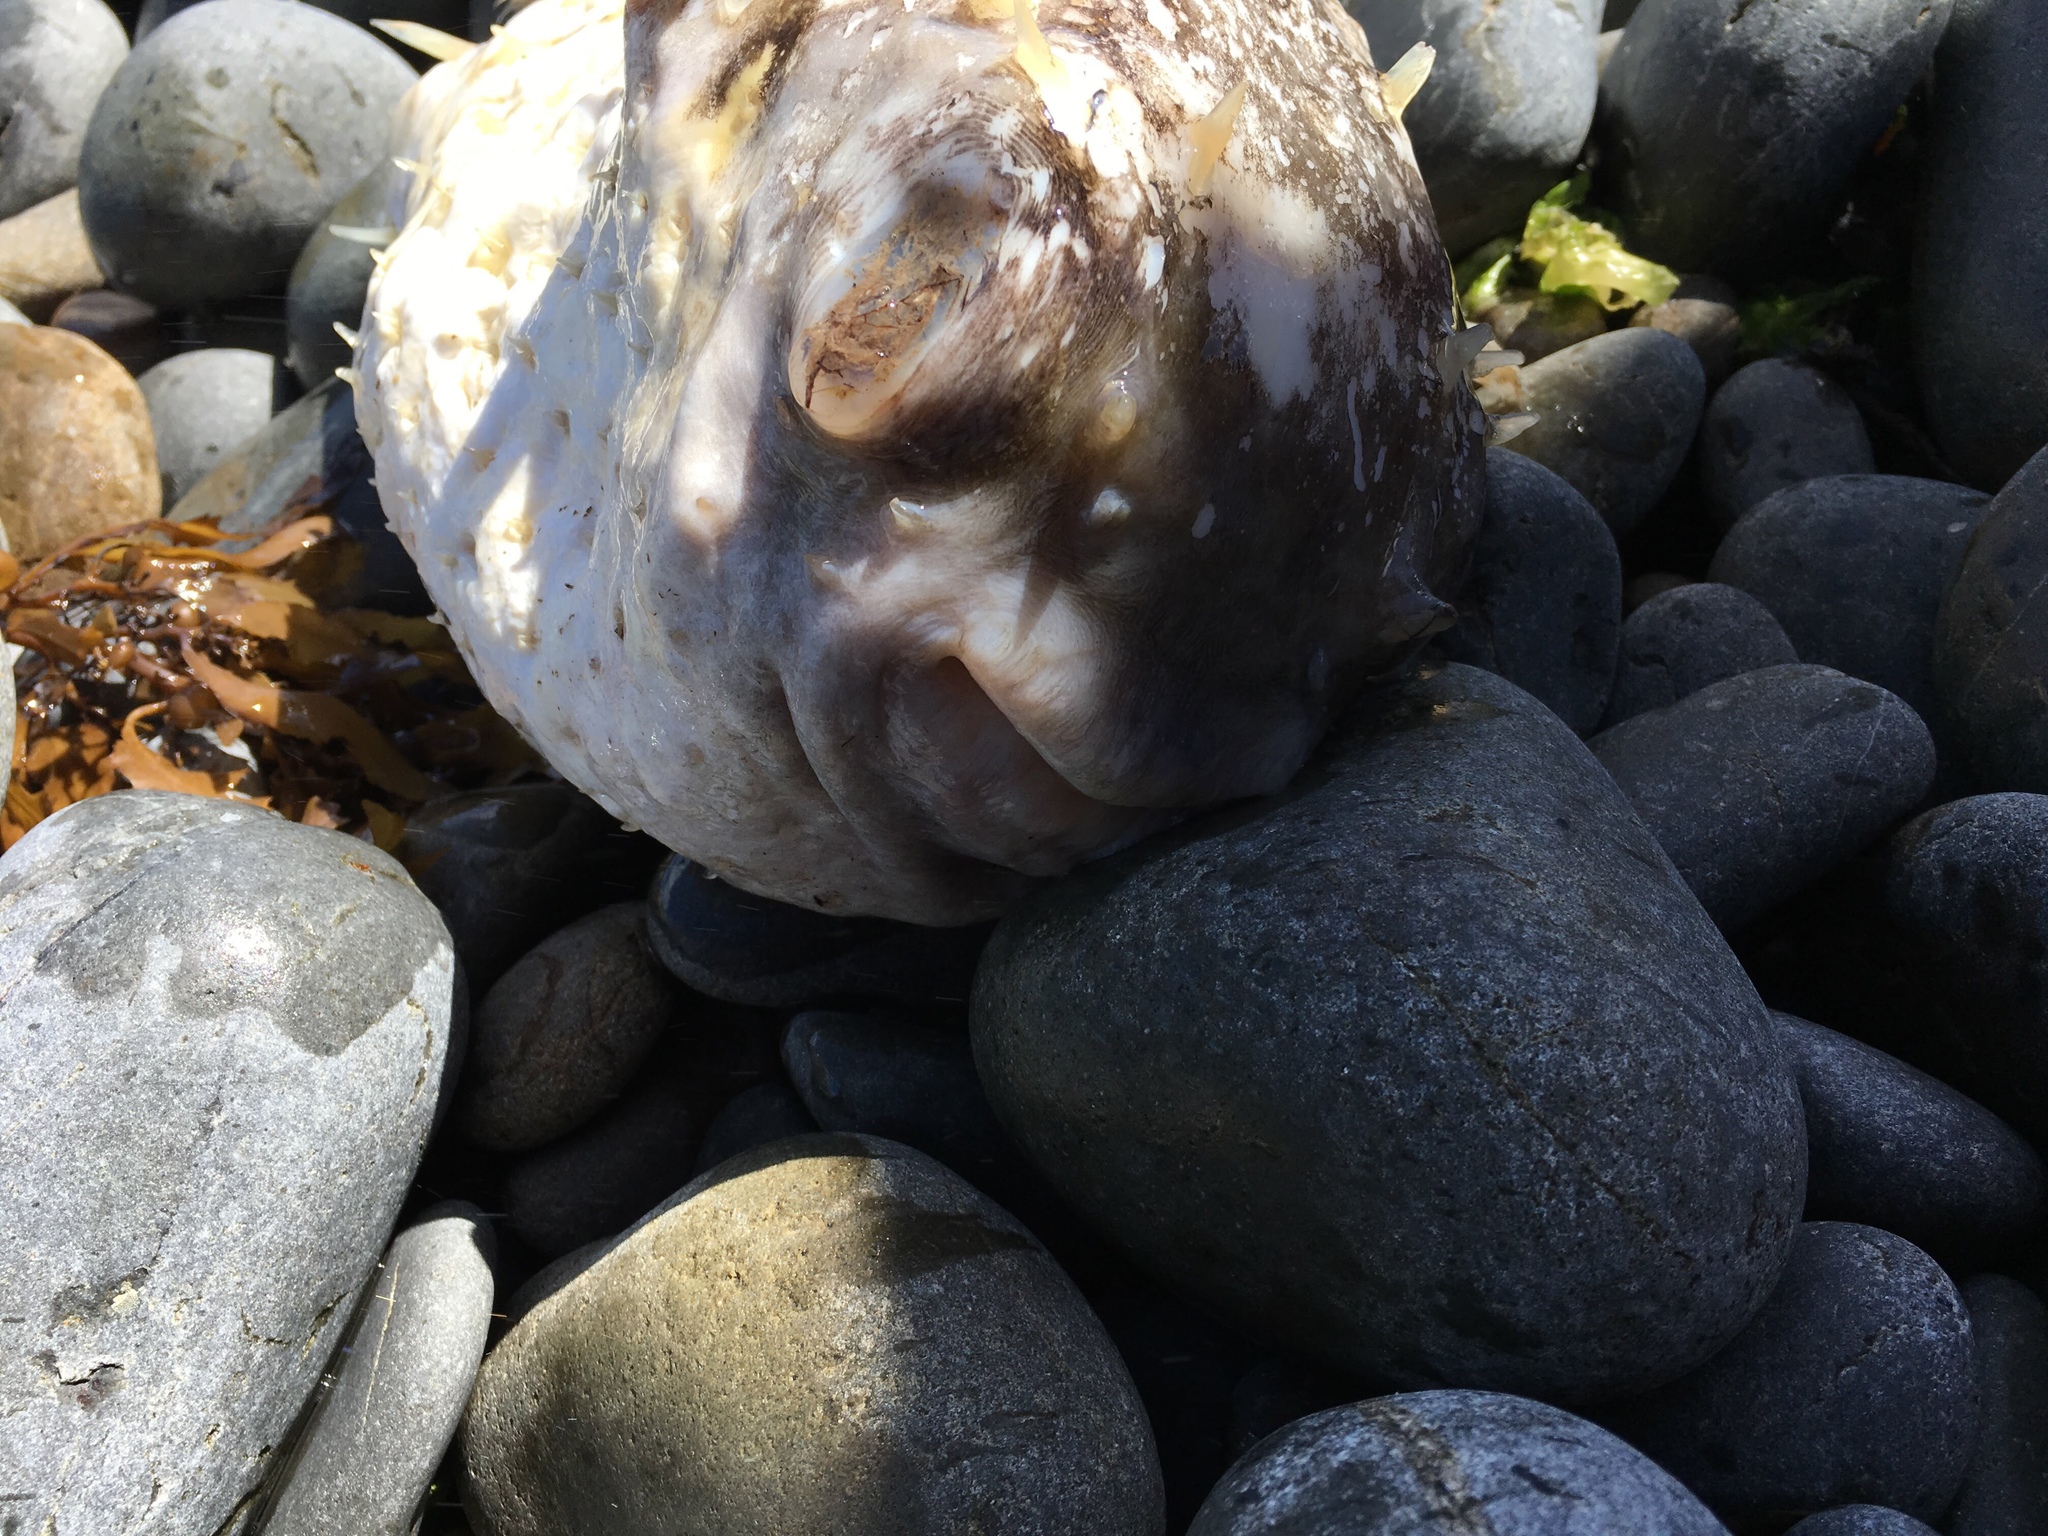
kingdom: Animalia
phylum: Chordata
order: Tetraodontiformes
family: Diodontidae
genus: Allomycterus
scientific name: Allomycterus pilatus
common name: No common name
